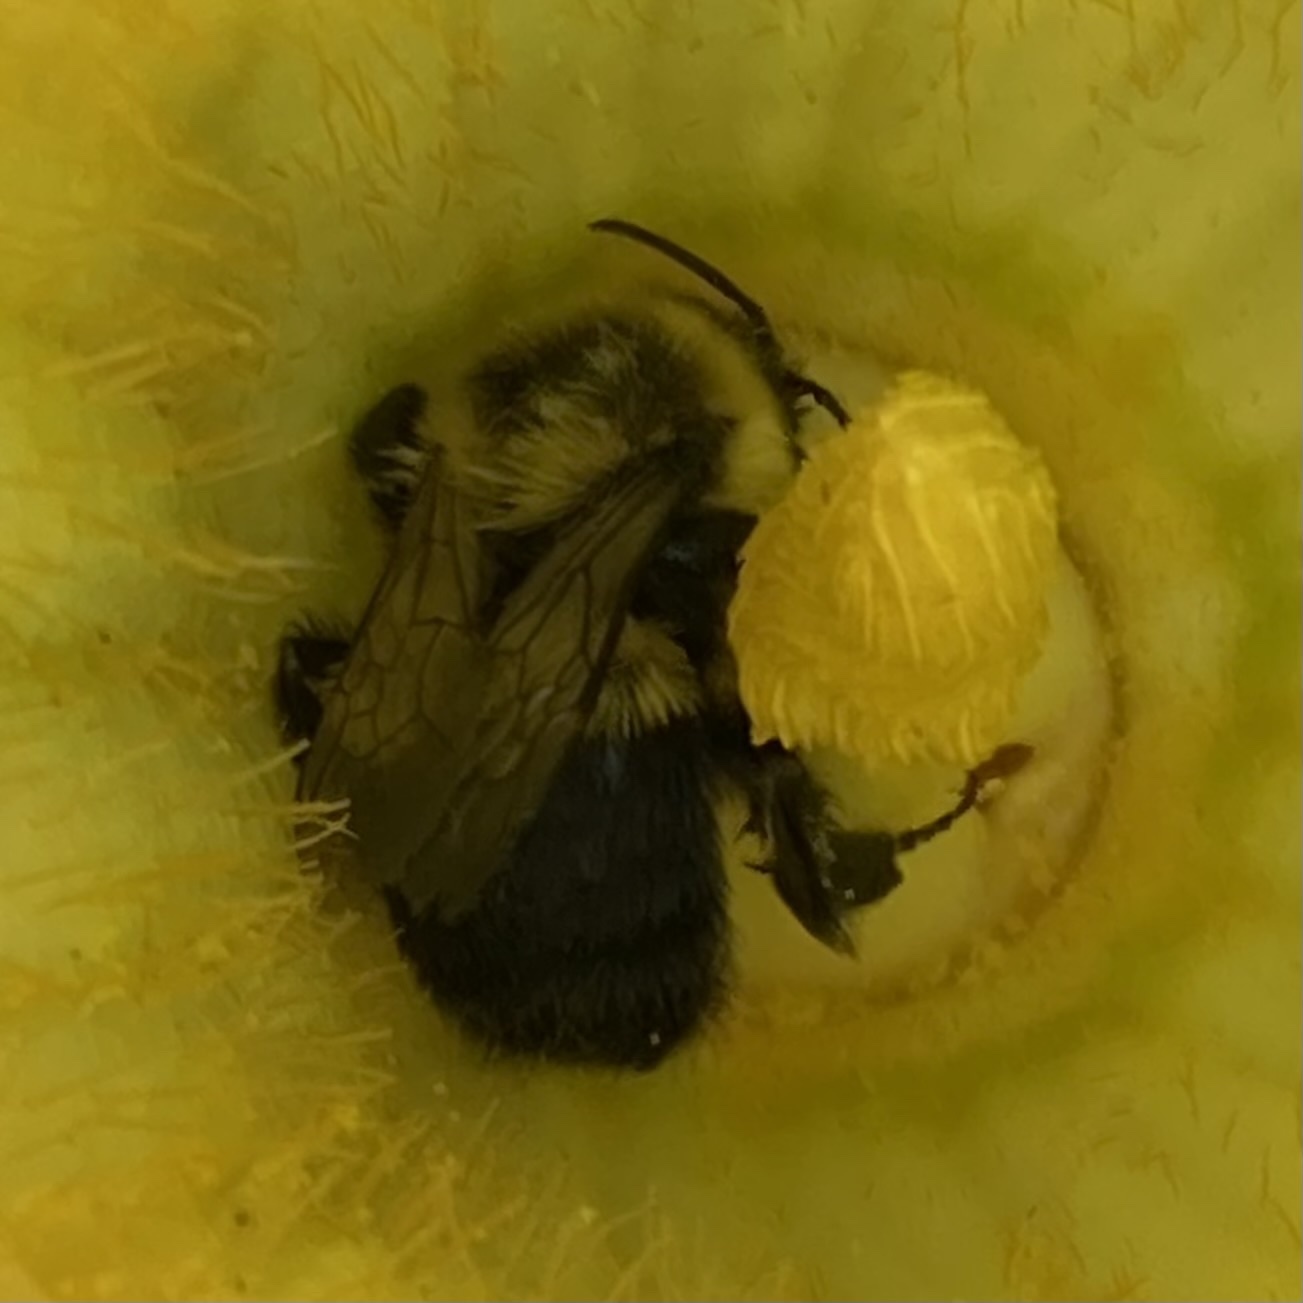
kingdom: Animalia
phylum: Arthropoda
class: Insecta
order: Hymenoptera
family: Apidae
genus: Bombus
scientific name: Bombus impatiens
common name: Common eastern bumble bee
